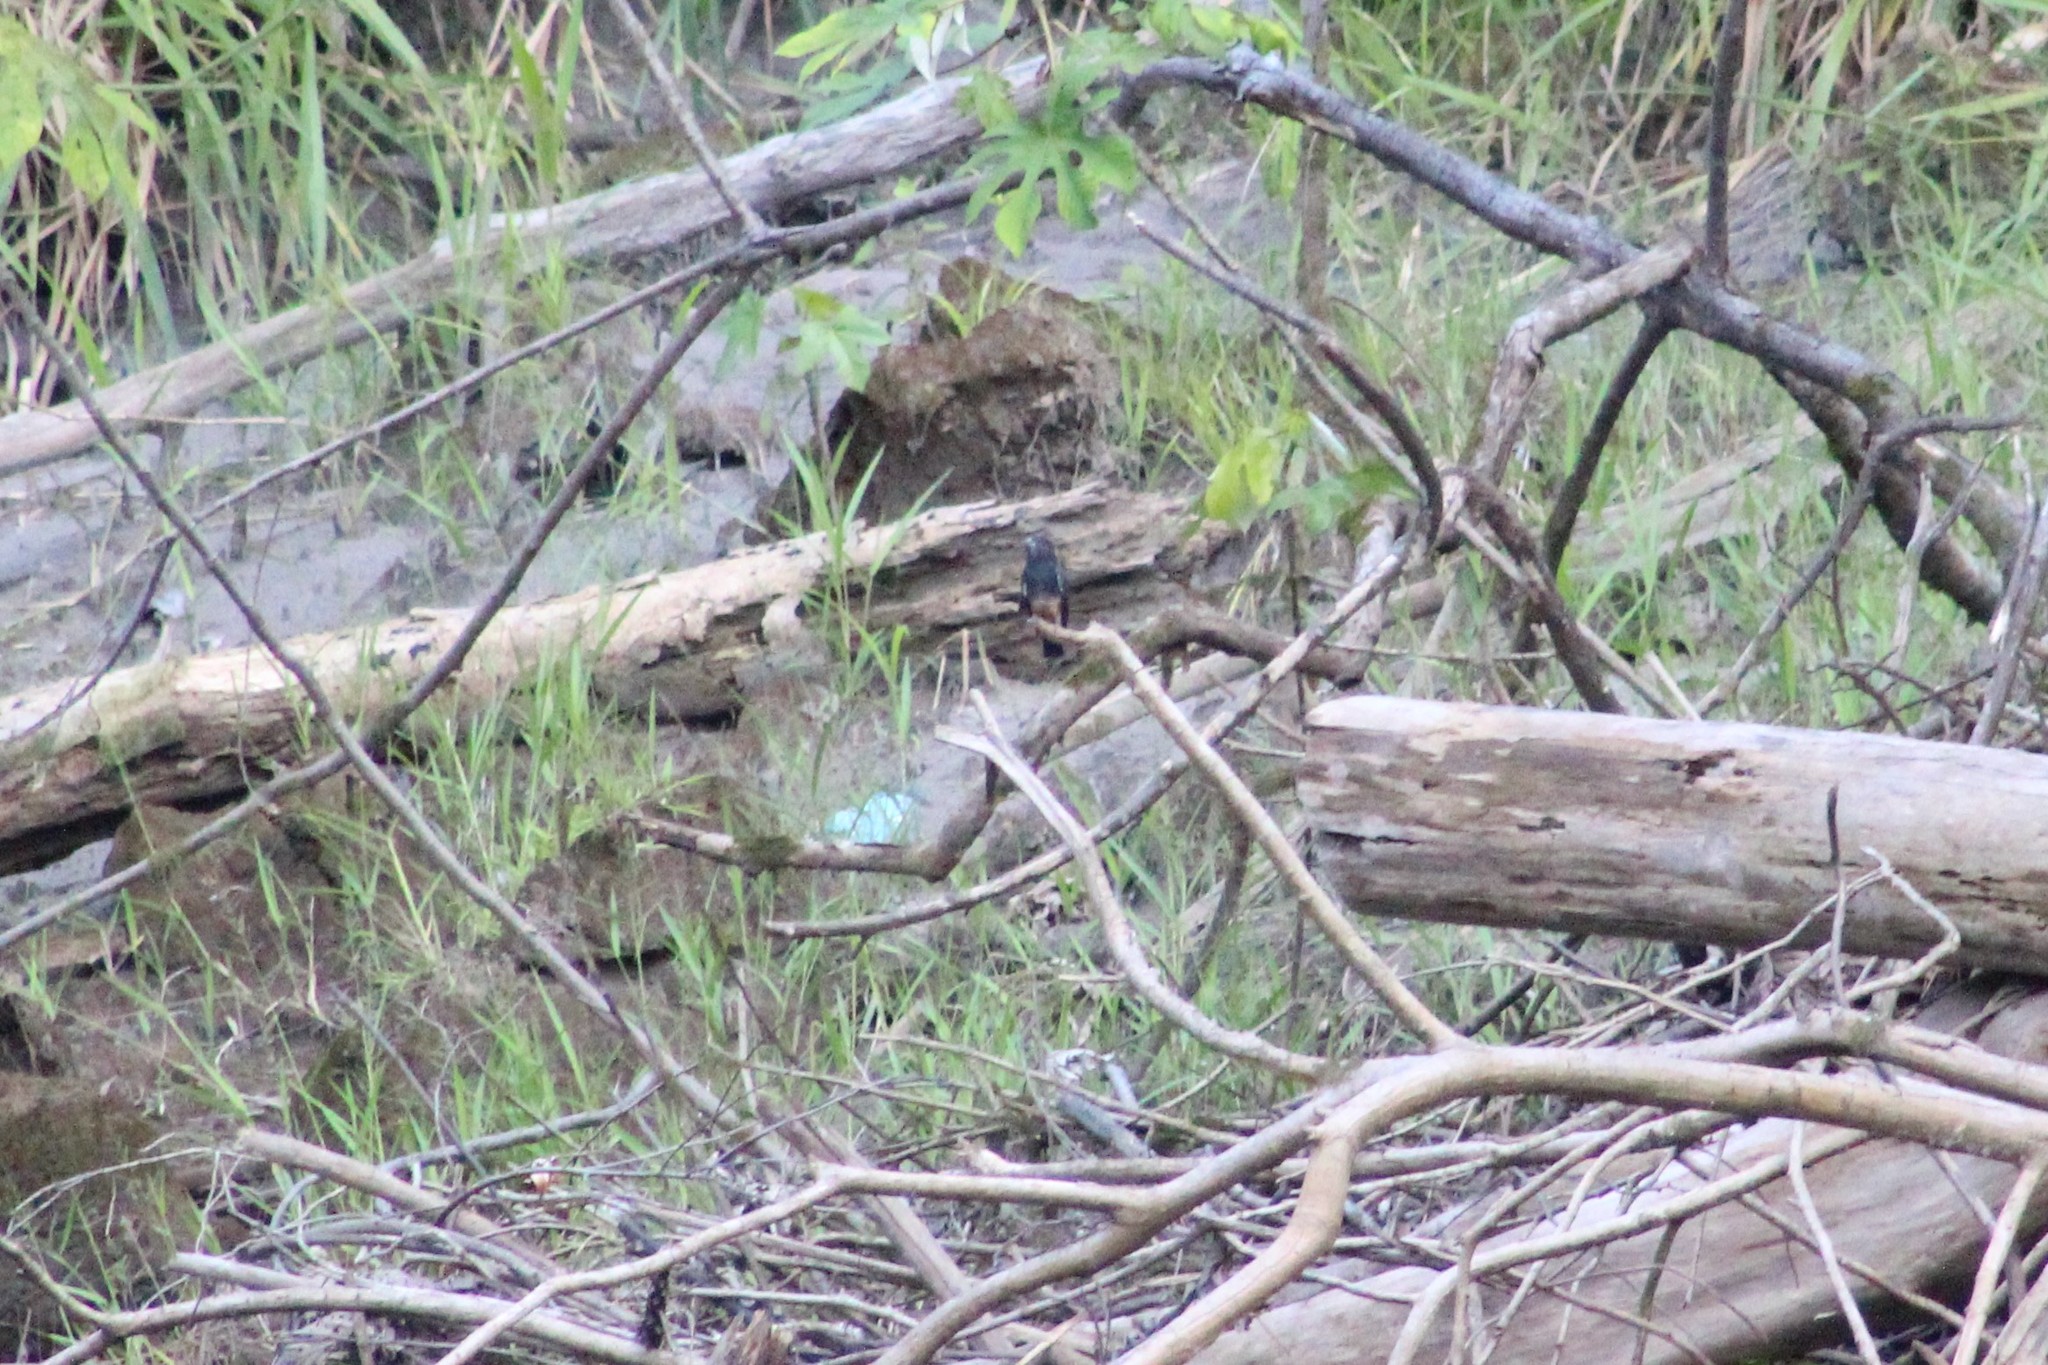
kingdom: Animalia
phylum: Chordata
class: Aves
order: Piciformes
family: Bucconidae
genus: Chelidoptera
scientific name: Chelidoptera tenebrosa
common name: Swallow-winged puffbird
